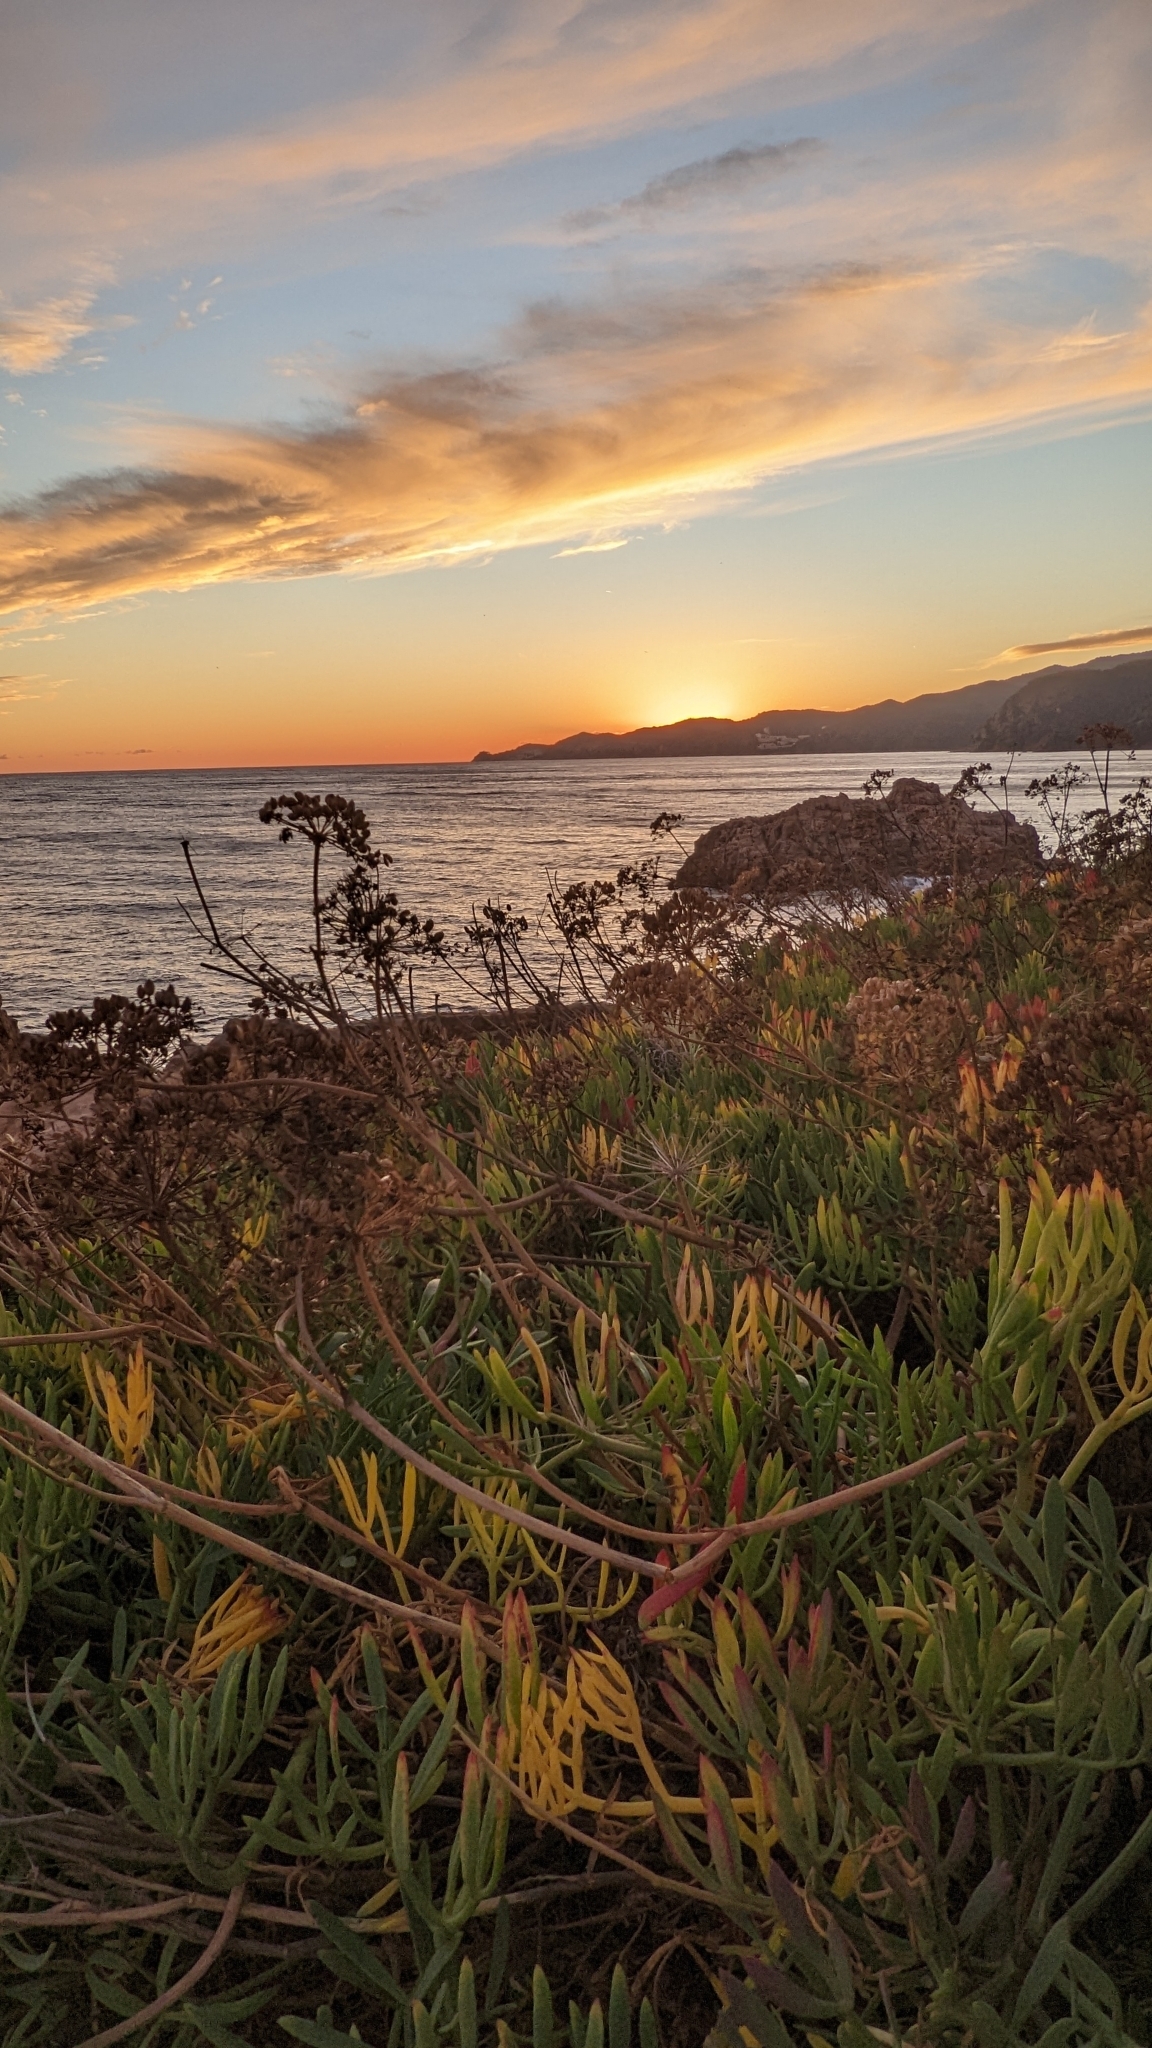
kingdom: Plantae
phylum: Tracheophyta
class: Magnoliopsida
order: Apiales
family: Apiaceae
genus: Crithmum
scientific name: Crithmum maritimum
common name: Rock samphire
